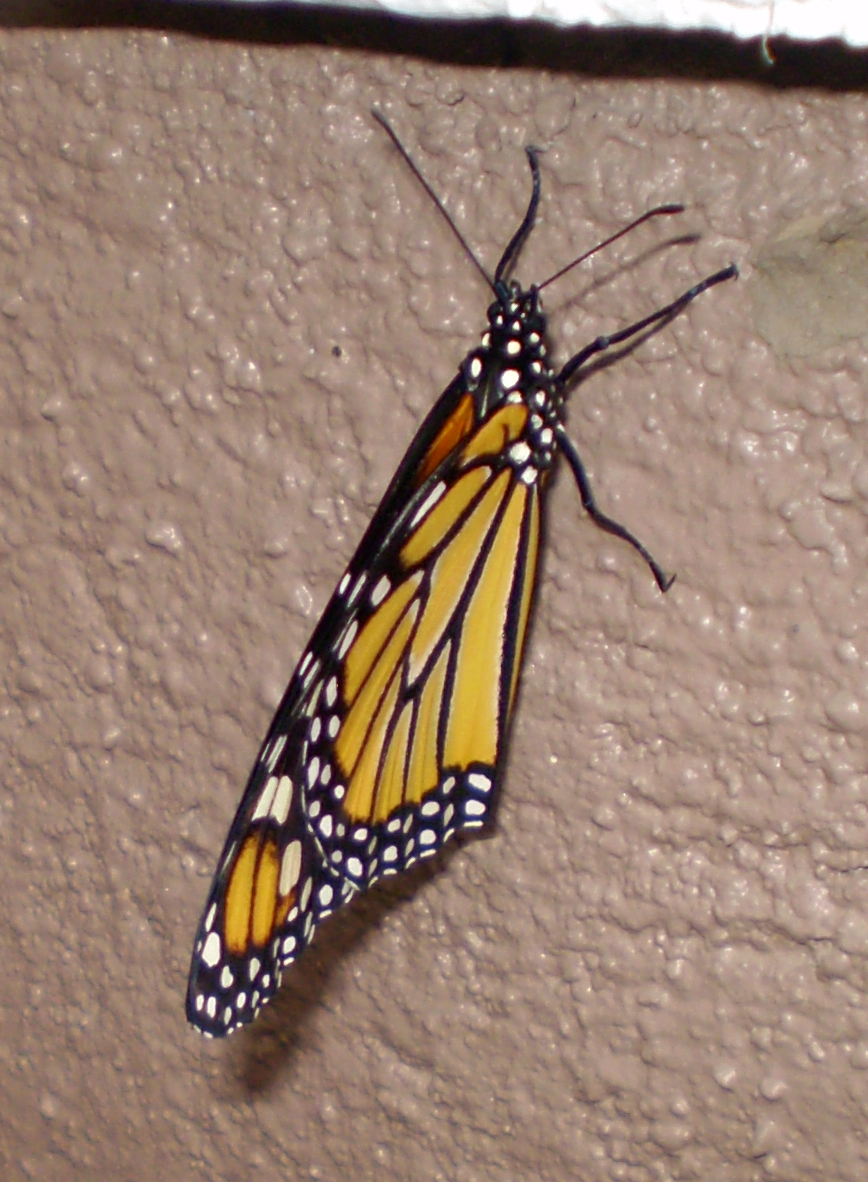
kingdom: Animalia
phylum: Arthropoda
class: Insecta
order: Lepidoptera
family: Nymphalidae
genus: Danaus
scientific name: Danaus plexippus
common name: Monarch
